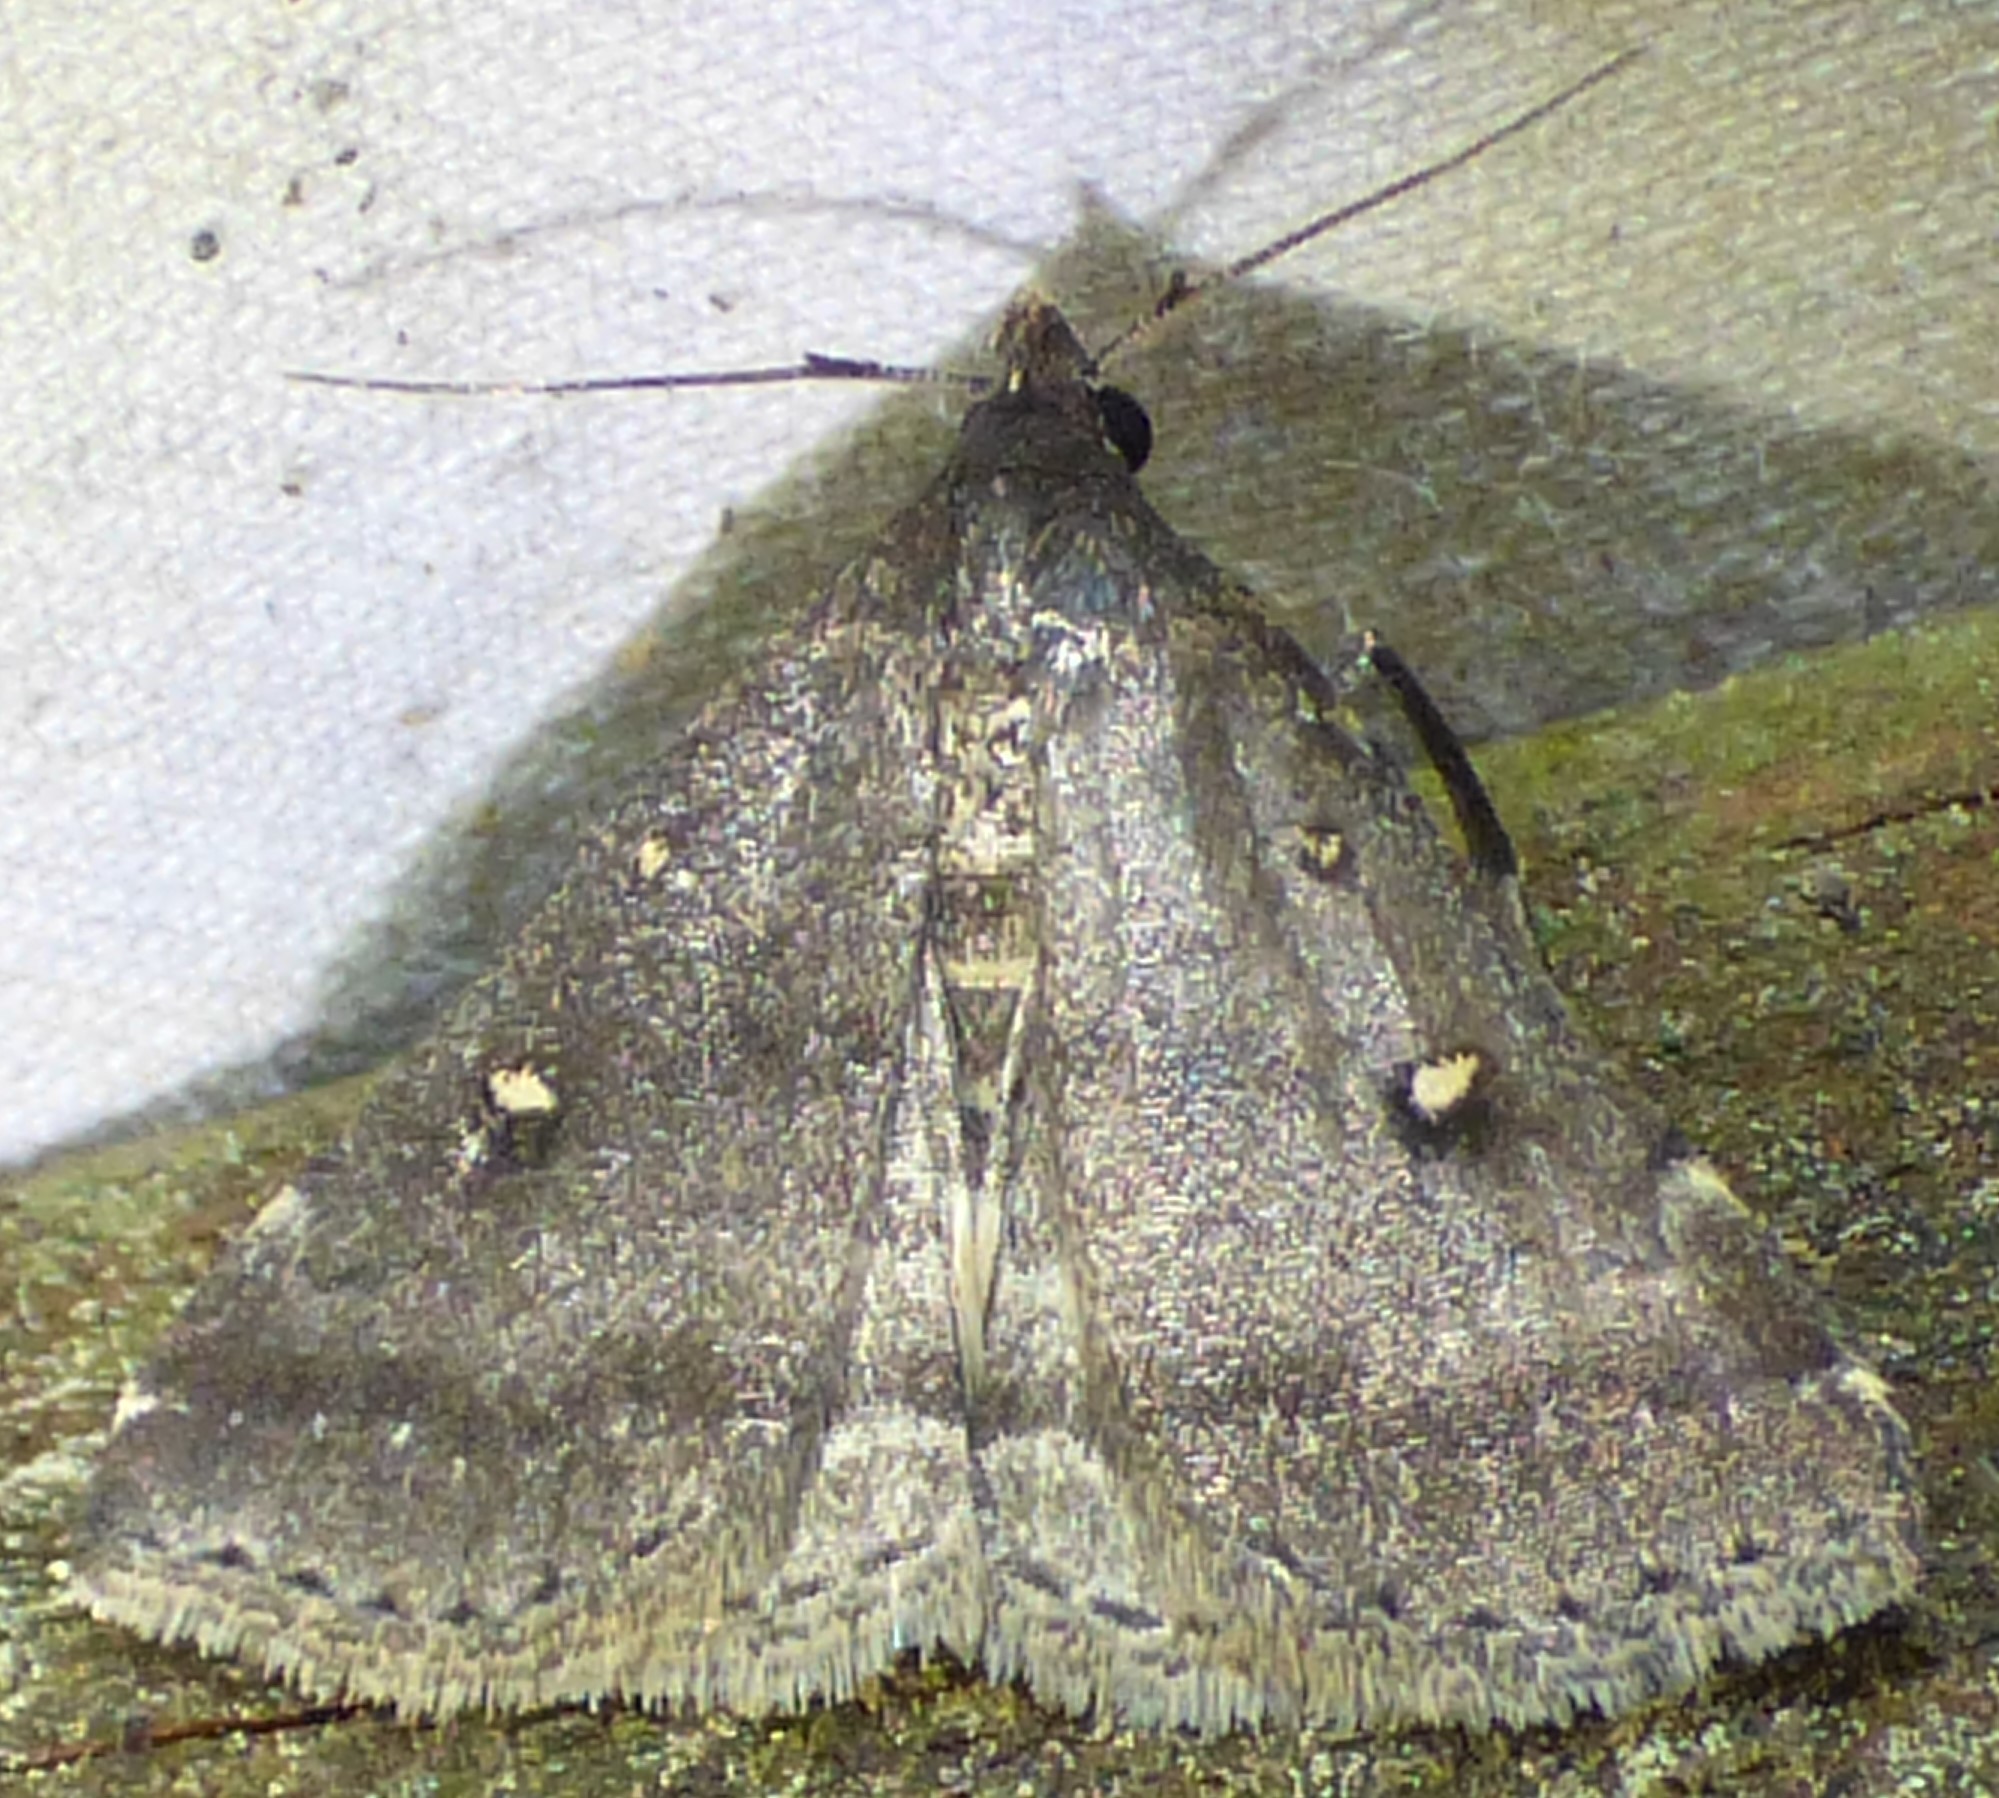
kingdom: Animalia
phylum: Arthropoda
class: Insecta
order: Lepidoptera
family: Erebidae
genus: Tetanolita
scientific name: Tetanolita mynesalis
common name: Smoky tetanolita moth
